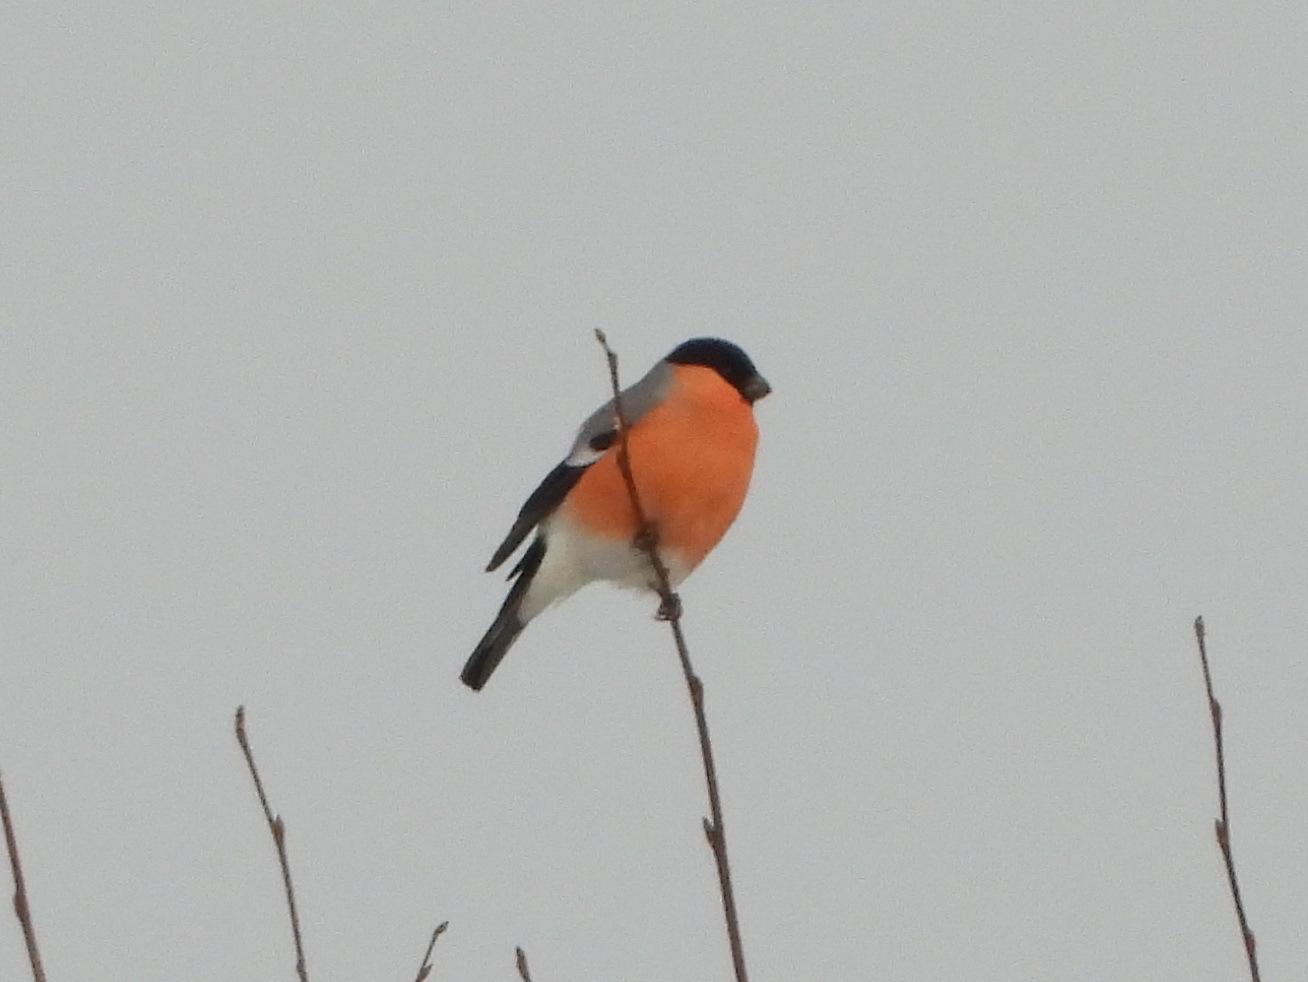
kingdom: Animalia
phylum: Chordata
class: Aves
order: Passeriformes
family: Fringillidae
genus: Pyrrhula
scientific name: Pyrrhula pyrrhula
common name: Eurasian bullfinch
